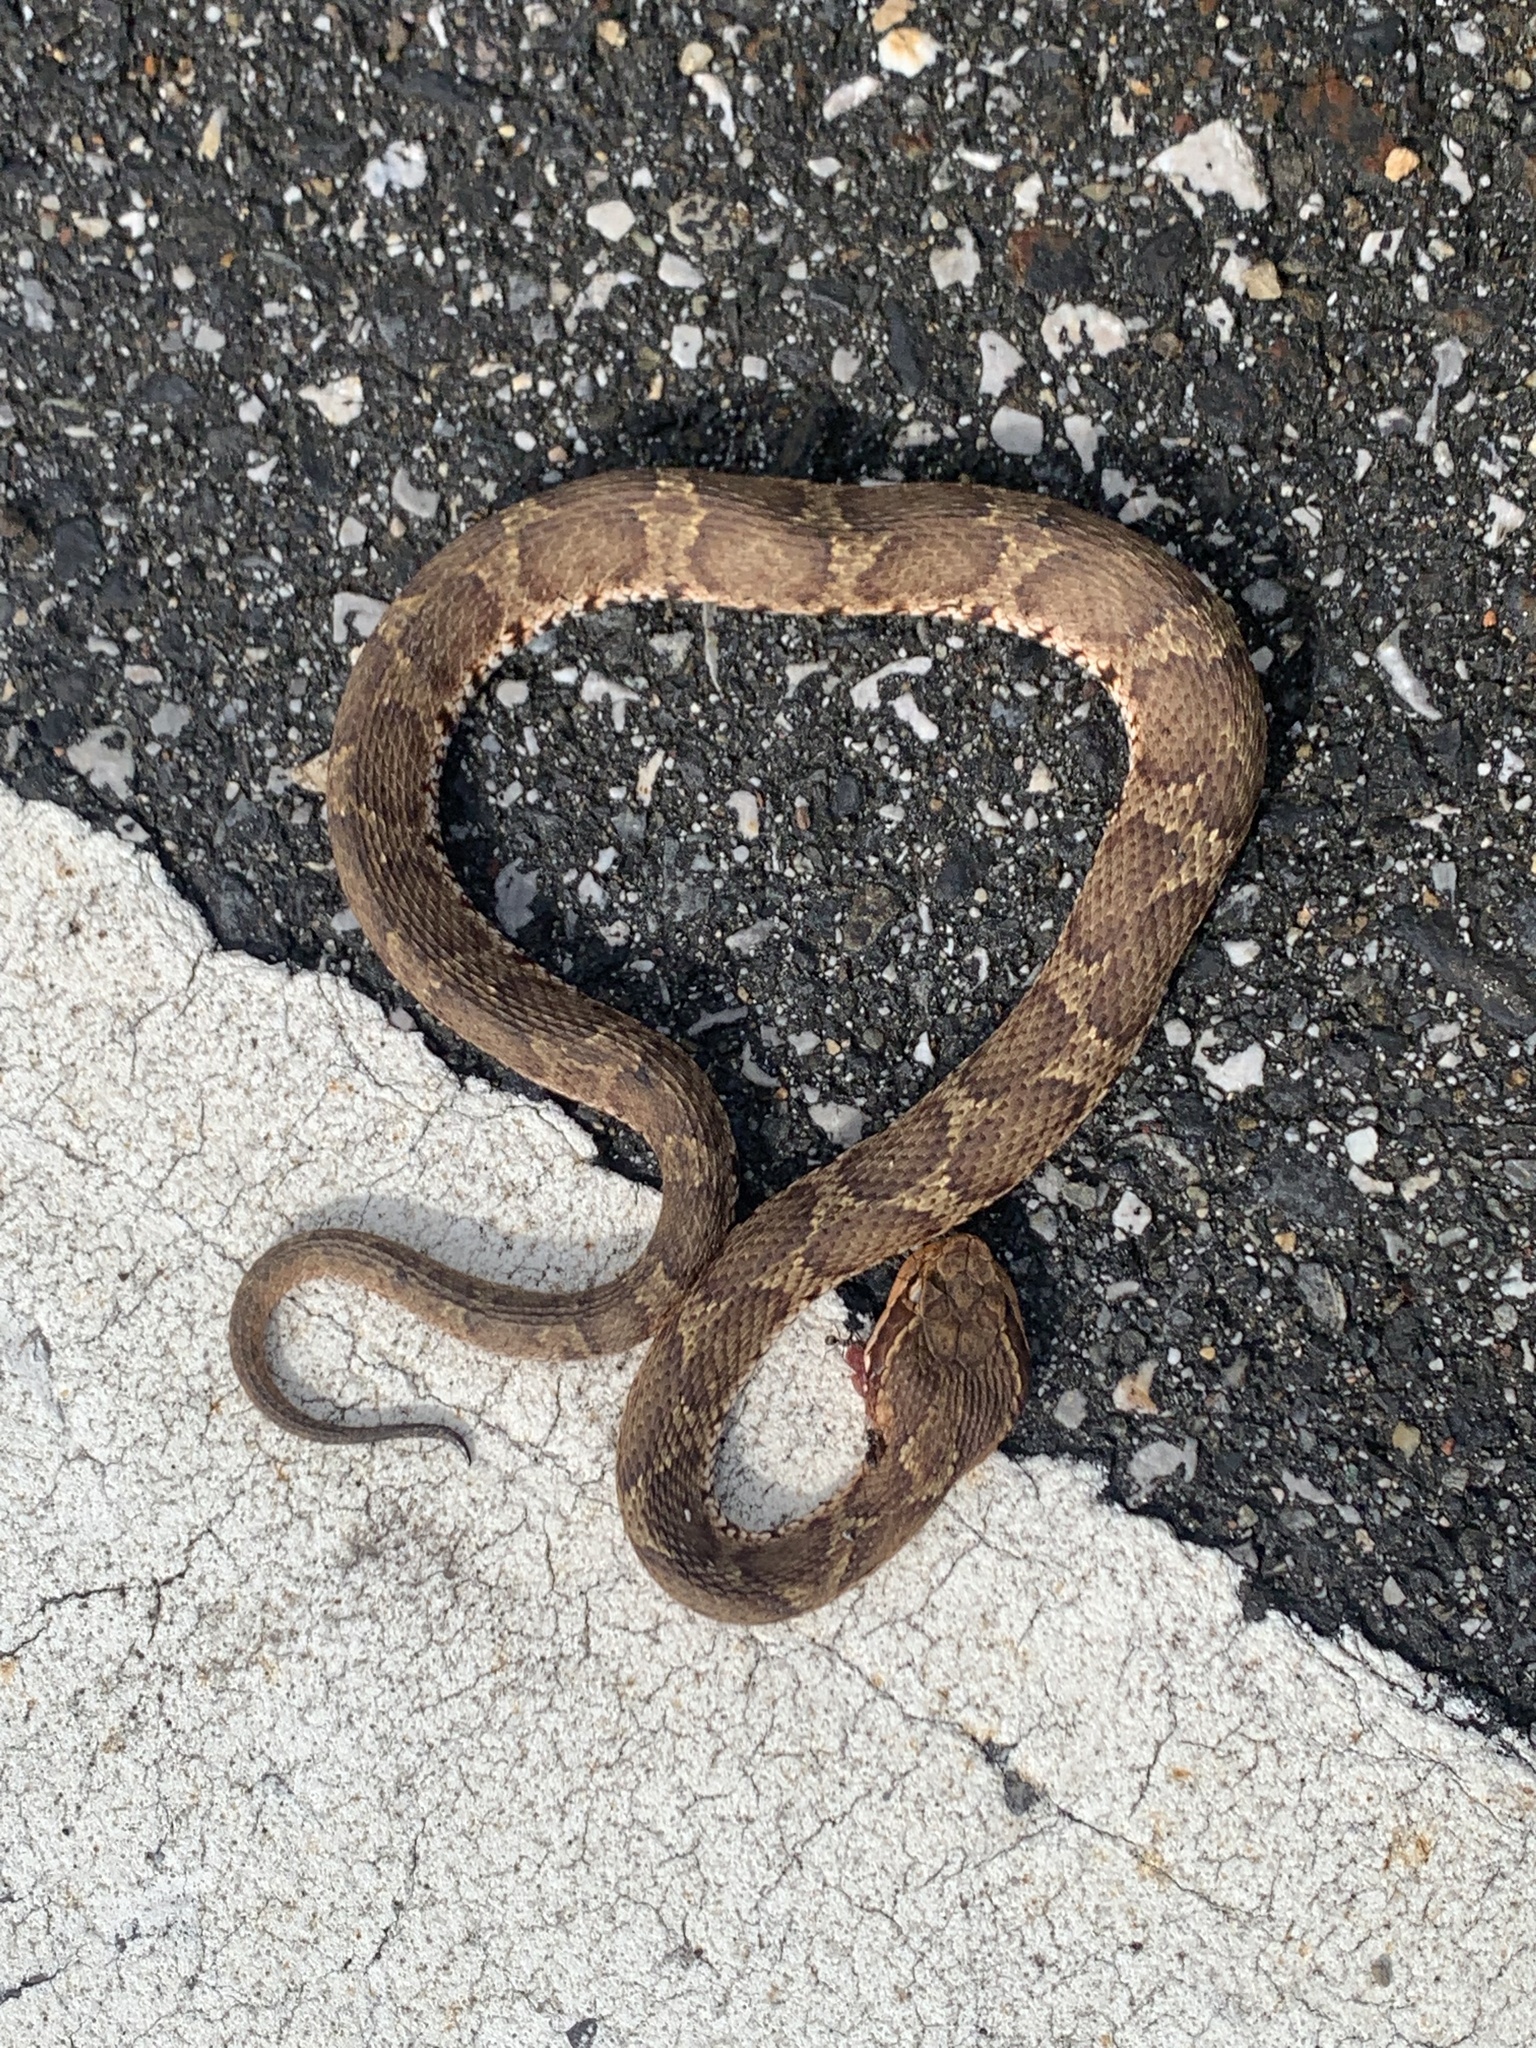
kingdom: Animalia
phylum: Chordata
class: Squamata
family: Viperidae
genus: Gloydius
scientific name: Gloydius blomhoffii
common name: Mamushi
